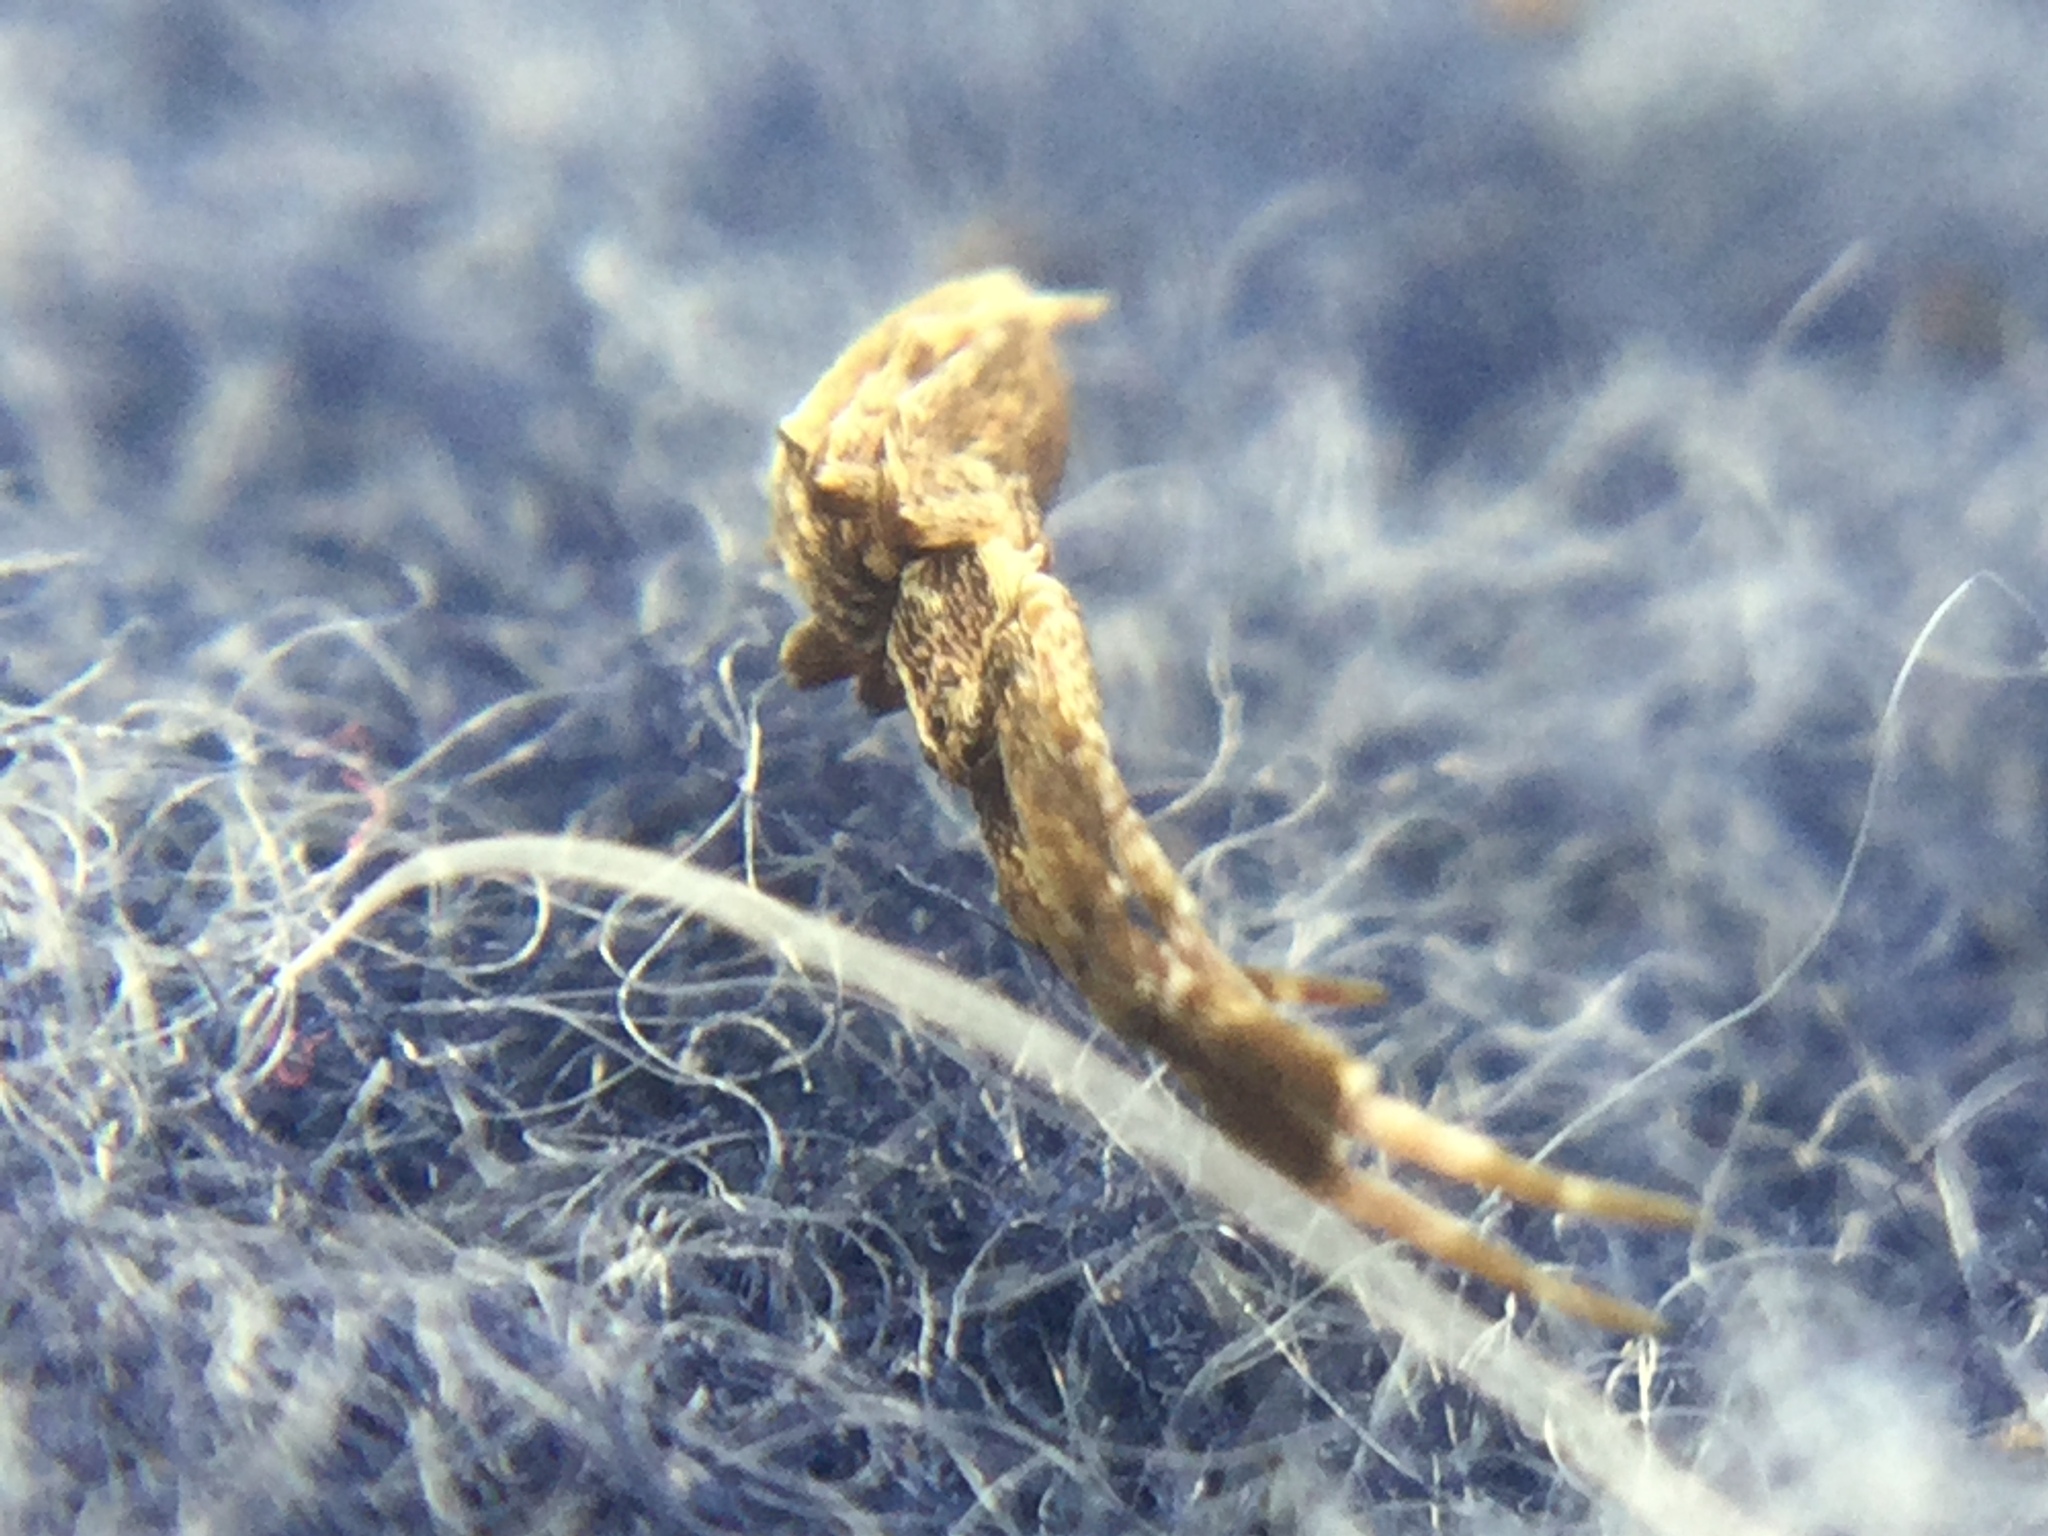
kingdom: Animalia
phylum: Arthropoda
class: Arachnida
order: Araneae
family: Uloboridae
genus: Uloborus
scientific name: Uloborus glomosus
